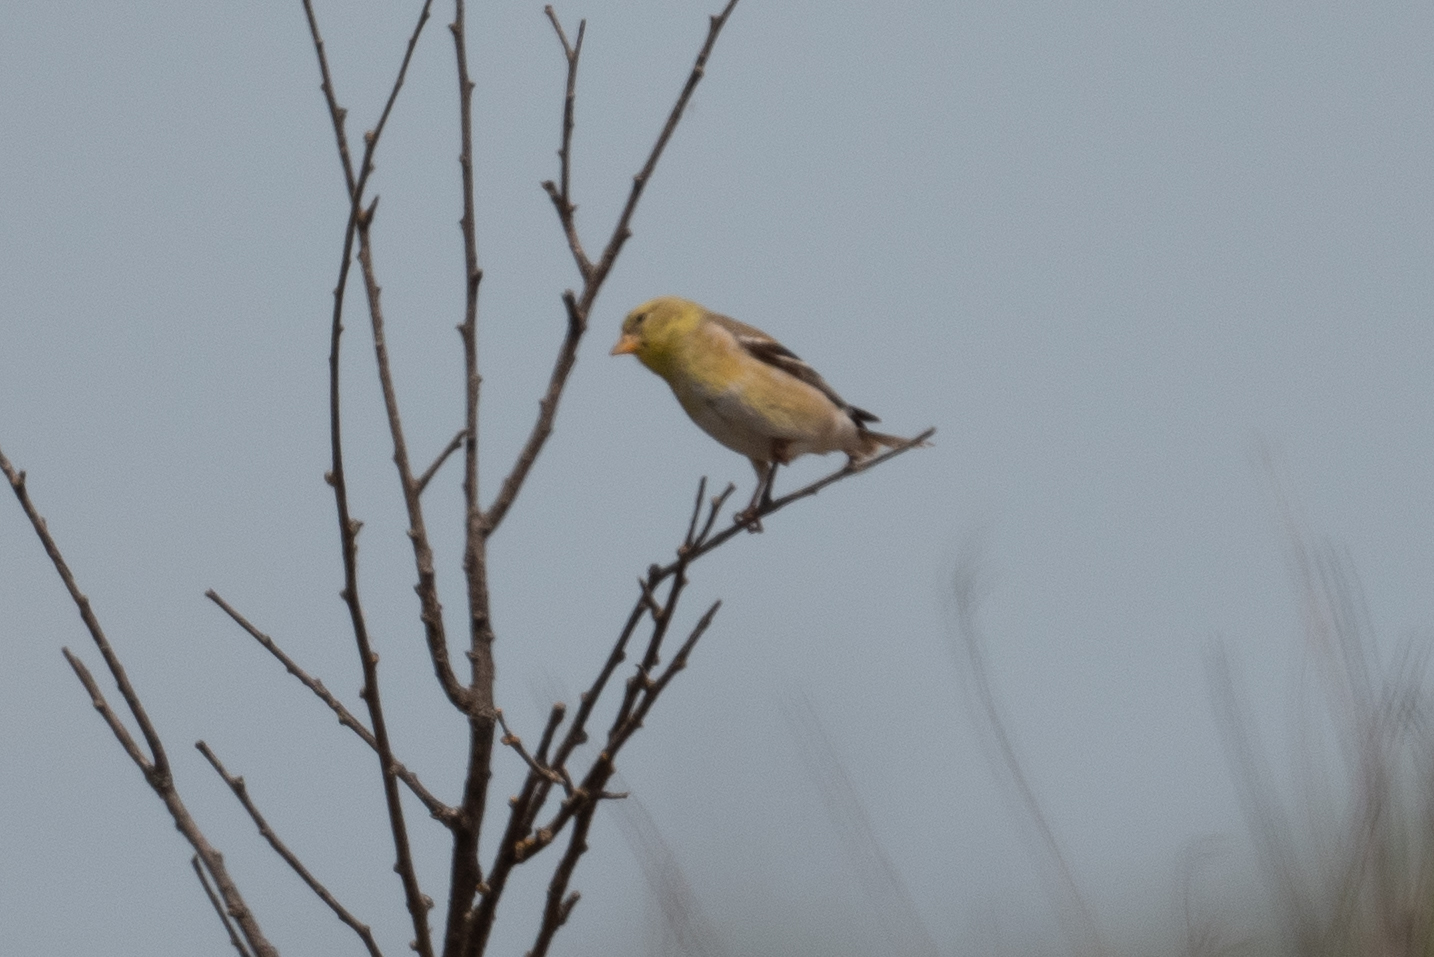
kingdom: Animalia
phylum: Chordata
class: Aves
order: Passeriformes
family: Fringillidae
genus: Spinus
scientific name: Spinus tristis
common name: American goldfinch
